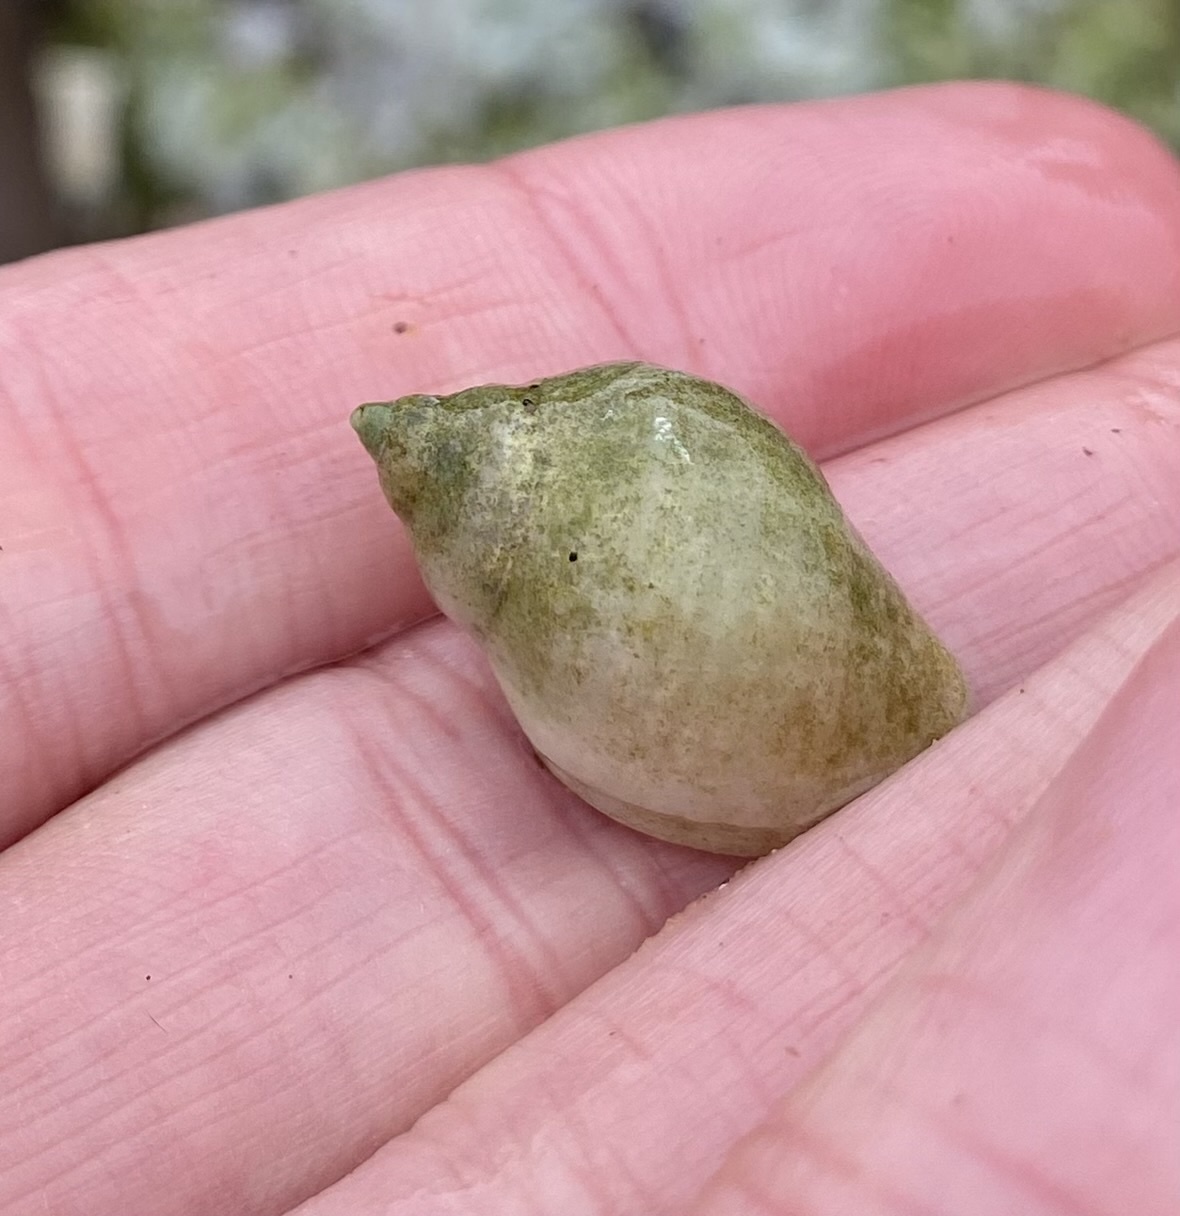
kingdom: Animalia
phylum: Mollusca
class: Gastropoda
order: Neogastropoda
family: Muricidae
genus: Nucella
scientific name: Nucella lapillus
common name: Dog whelk
